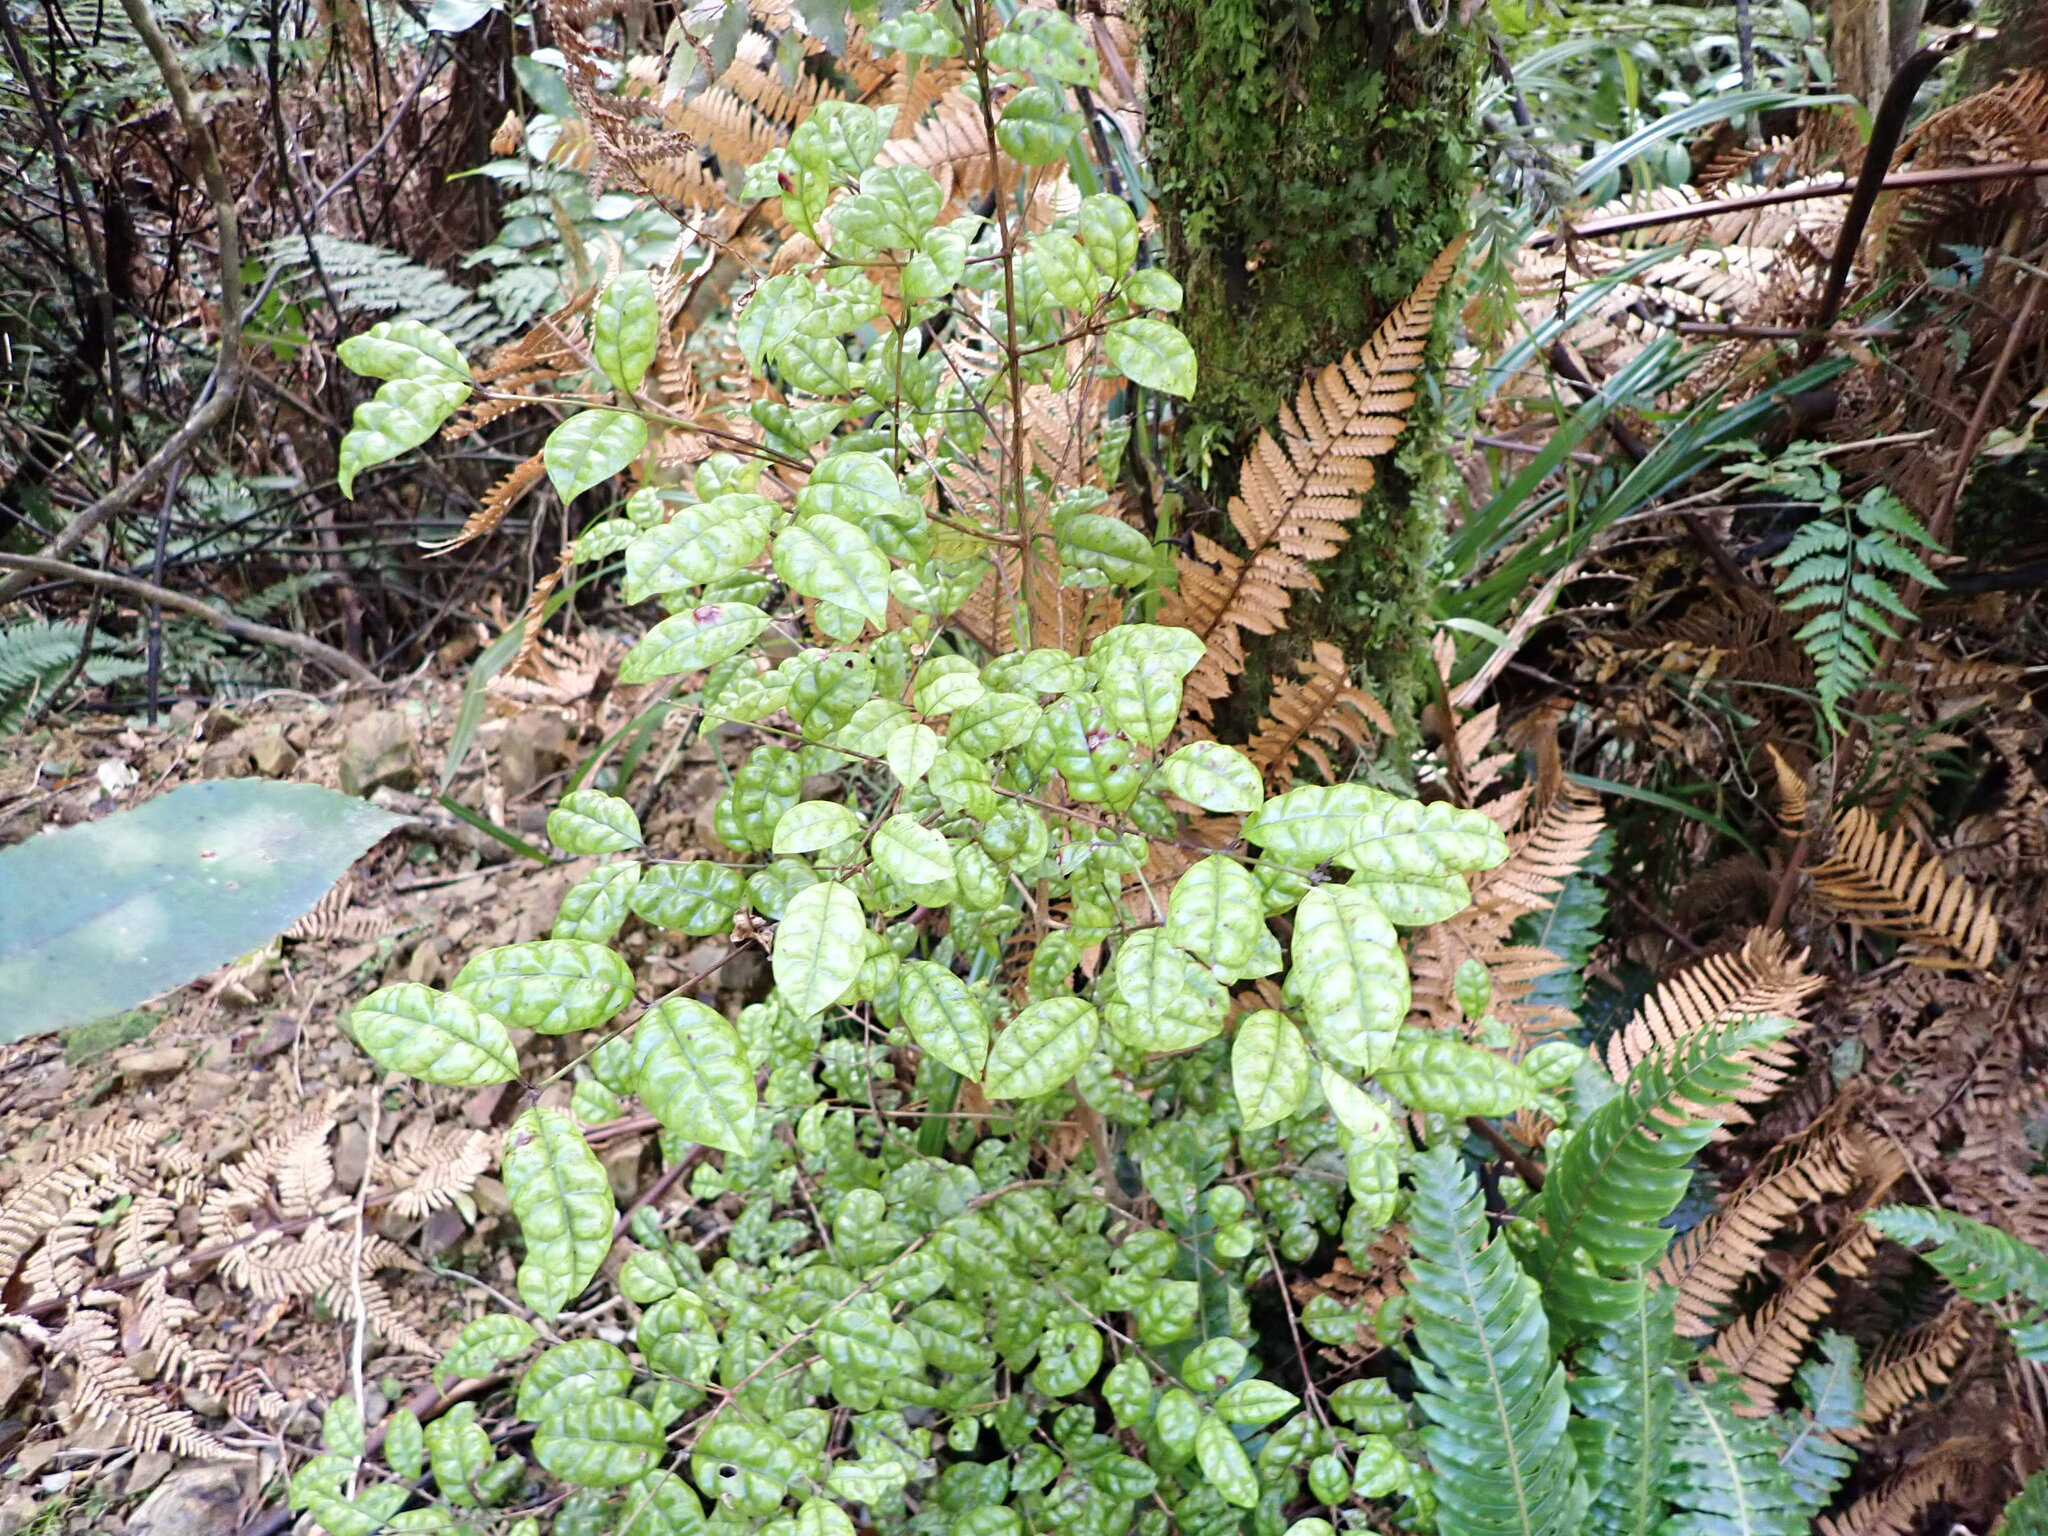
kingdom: Plantae
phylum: Tracheophyta
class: Magnoliopsida
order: Myrtales
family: Myrtaceae
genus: Lophomyrtus
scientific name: Lophomyrtus bullata
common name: Rama rama
